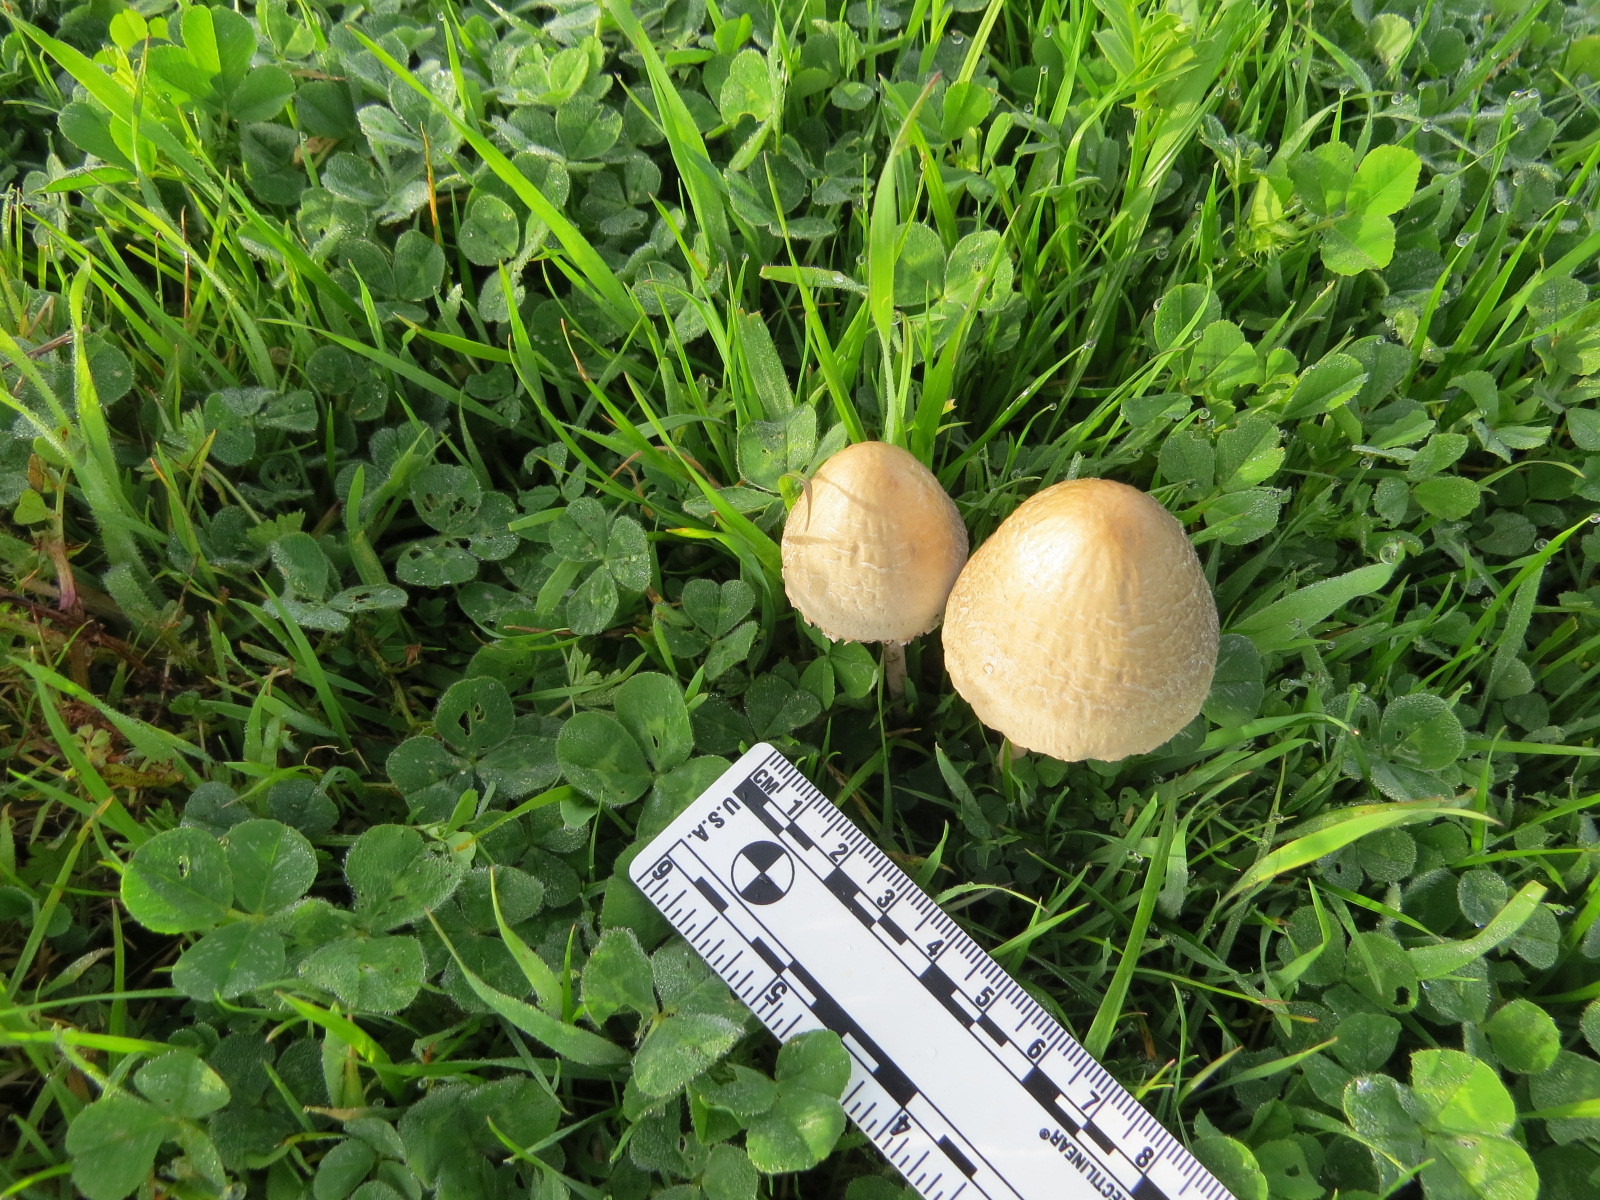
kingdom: Fungi
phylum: Basidiomycota
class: Agaricomycetes
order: Agaricales
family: Bolbitiaceae
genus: Panaeolus
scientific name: Panaeolus papilionaceus
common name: Petticoat mottlegill
